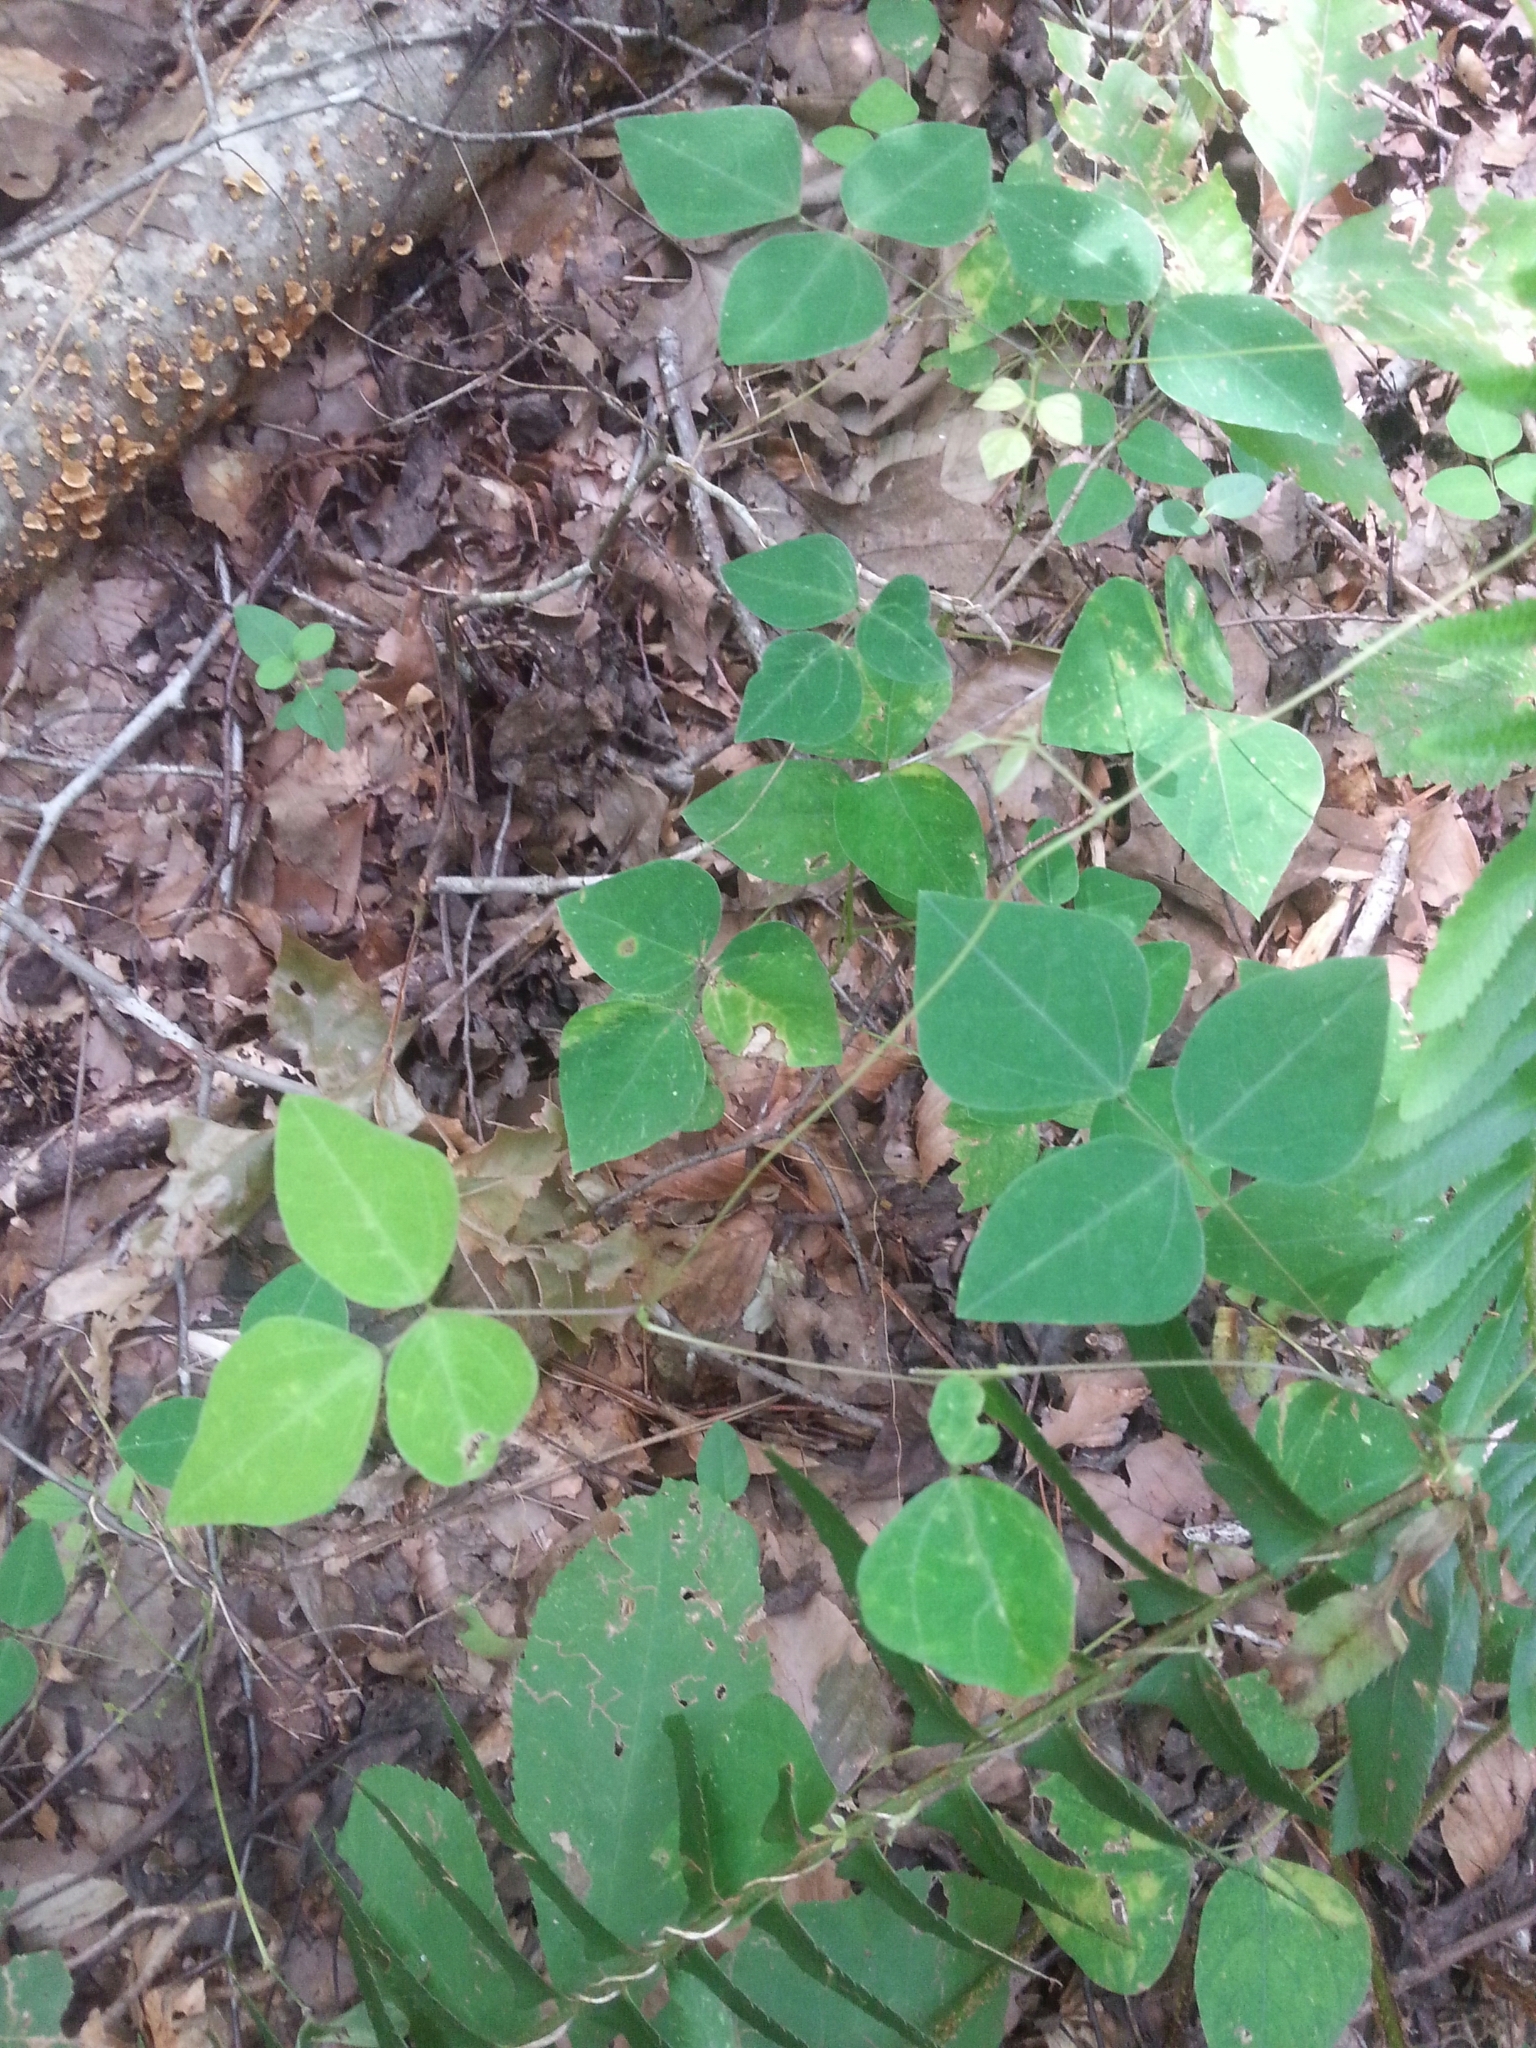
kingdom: Plantae
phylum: Tracheophyta
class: Magnoliopsida
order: Fabales
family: Fabaceae
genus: Amphicarpaea
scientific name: Amphicarpaea bracteata
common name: American hog peanut
